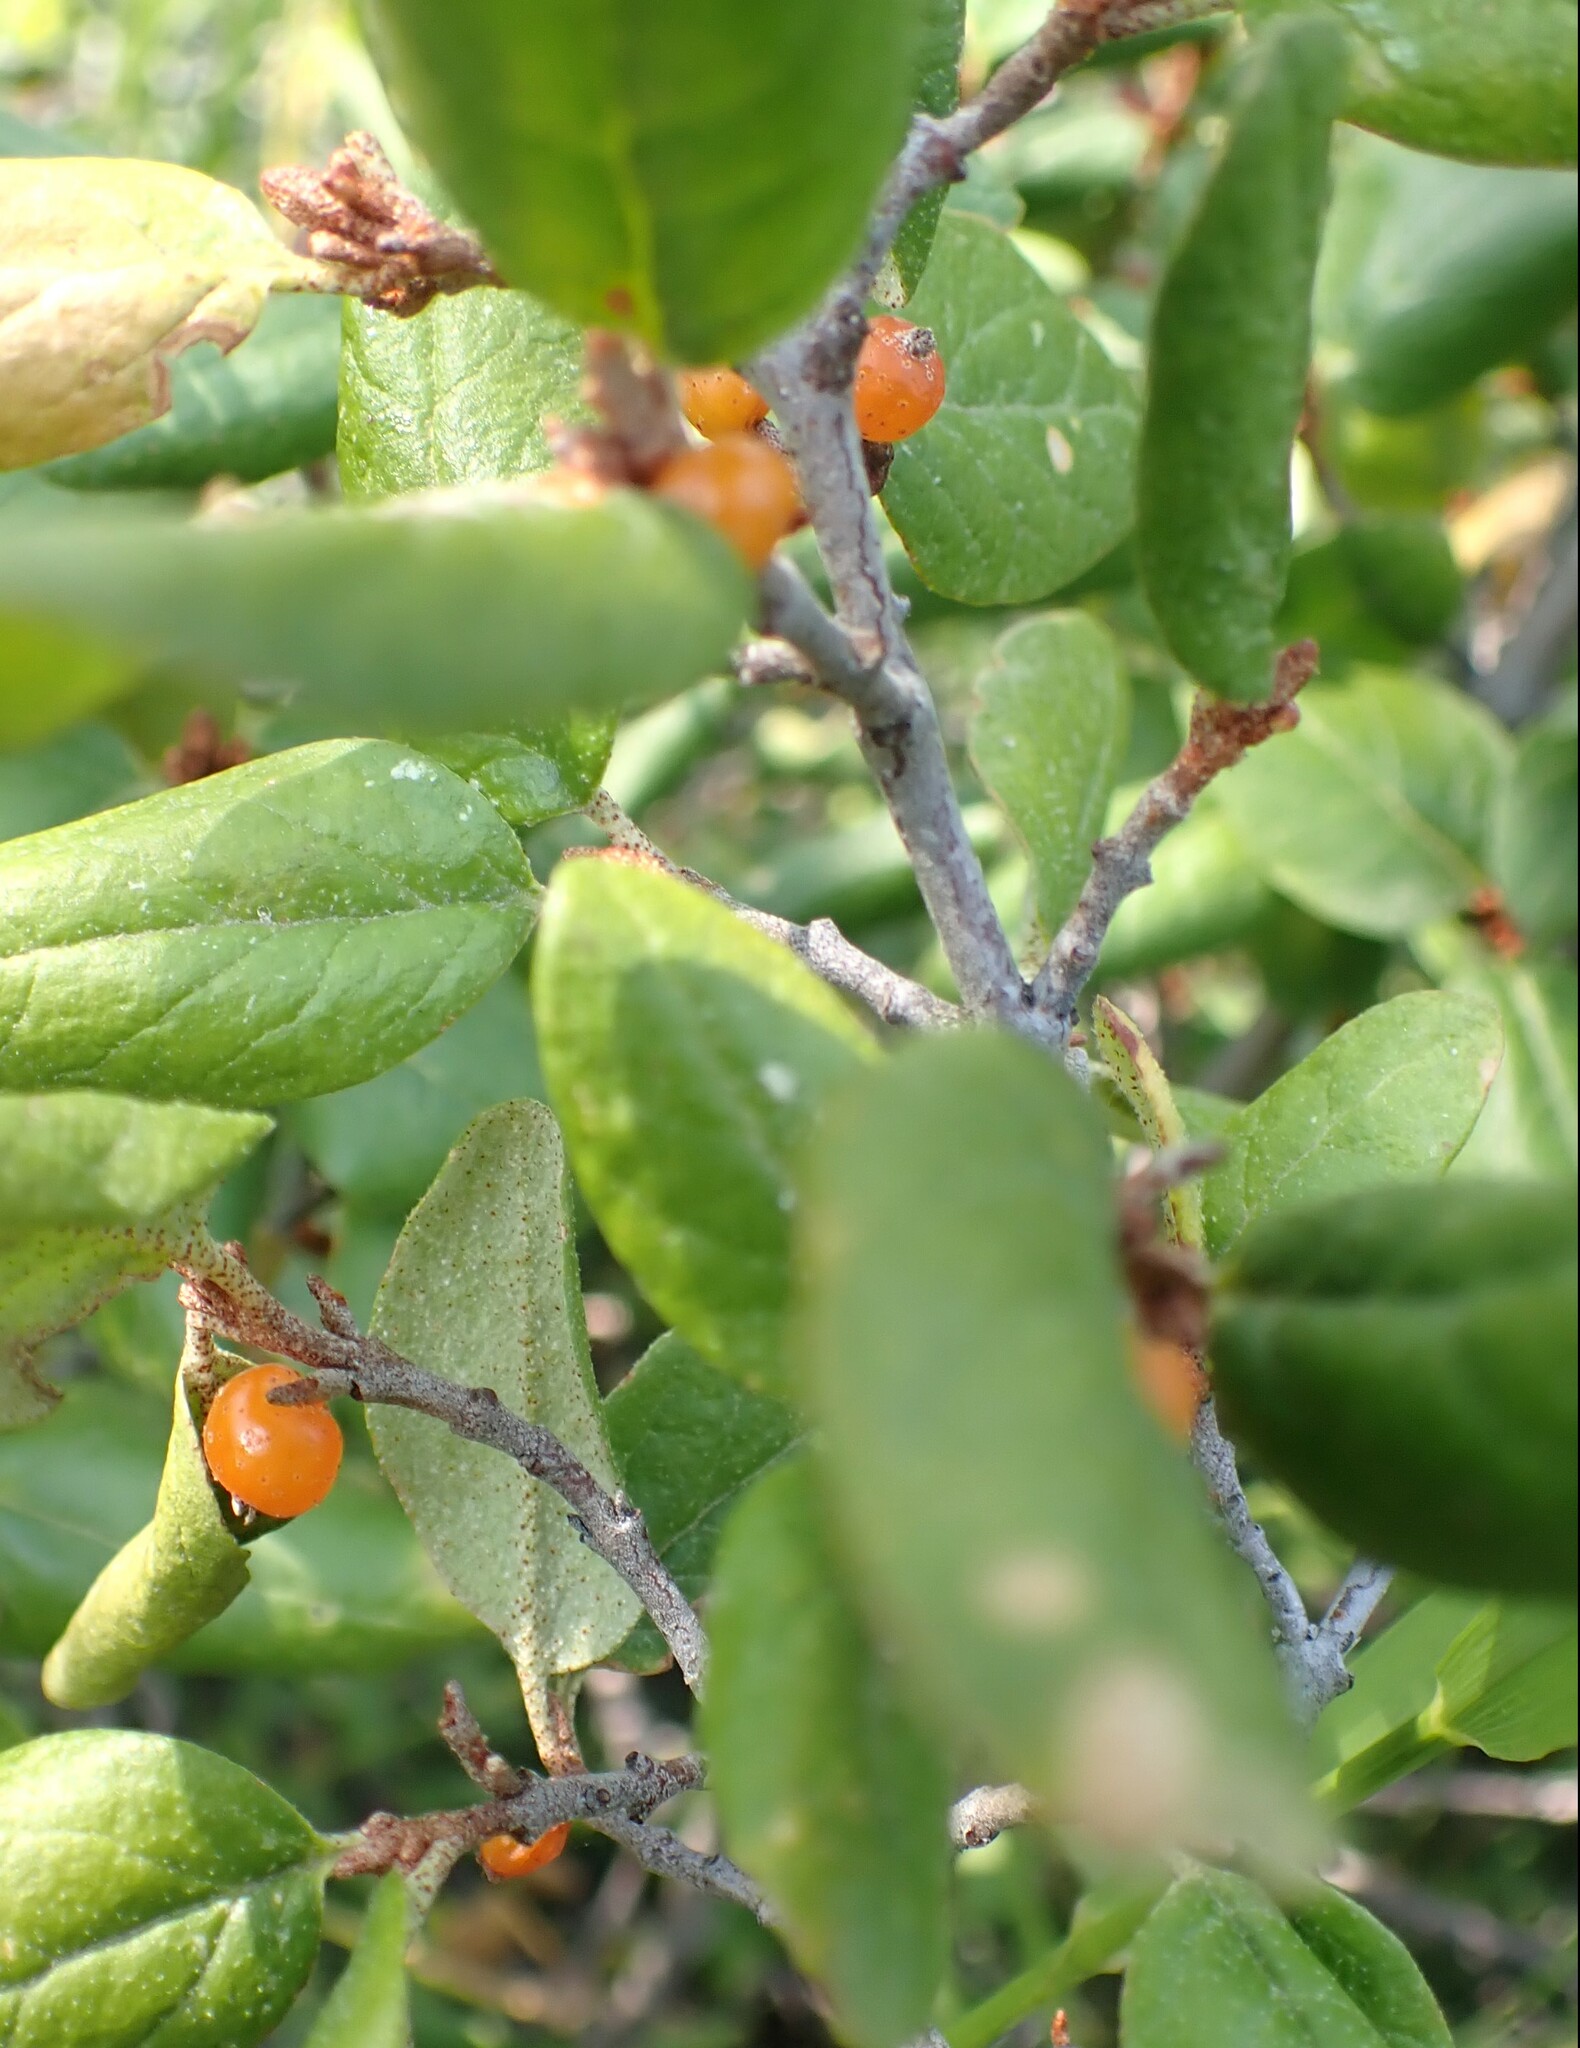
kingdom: Plantae
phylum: Tracheophyta
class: Magnoliopsida
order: Rosales
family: Elaeagnaceae
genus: Shepherdia
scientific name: Shepherdia canadensis
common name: Soapberry
